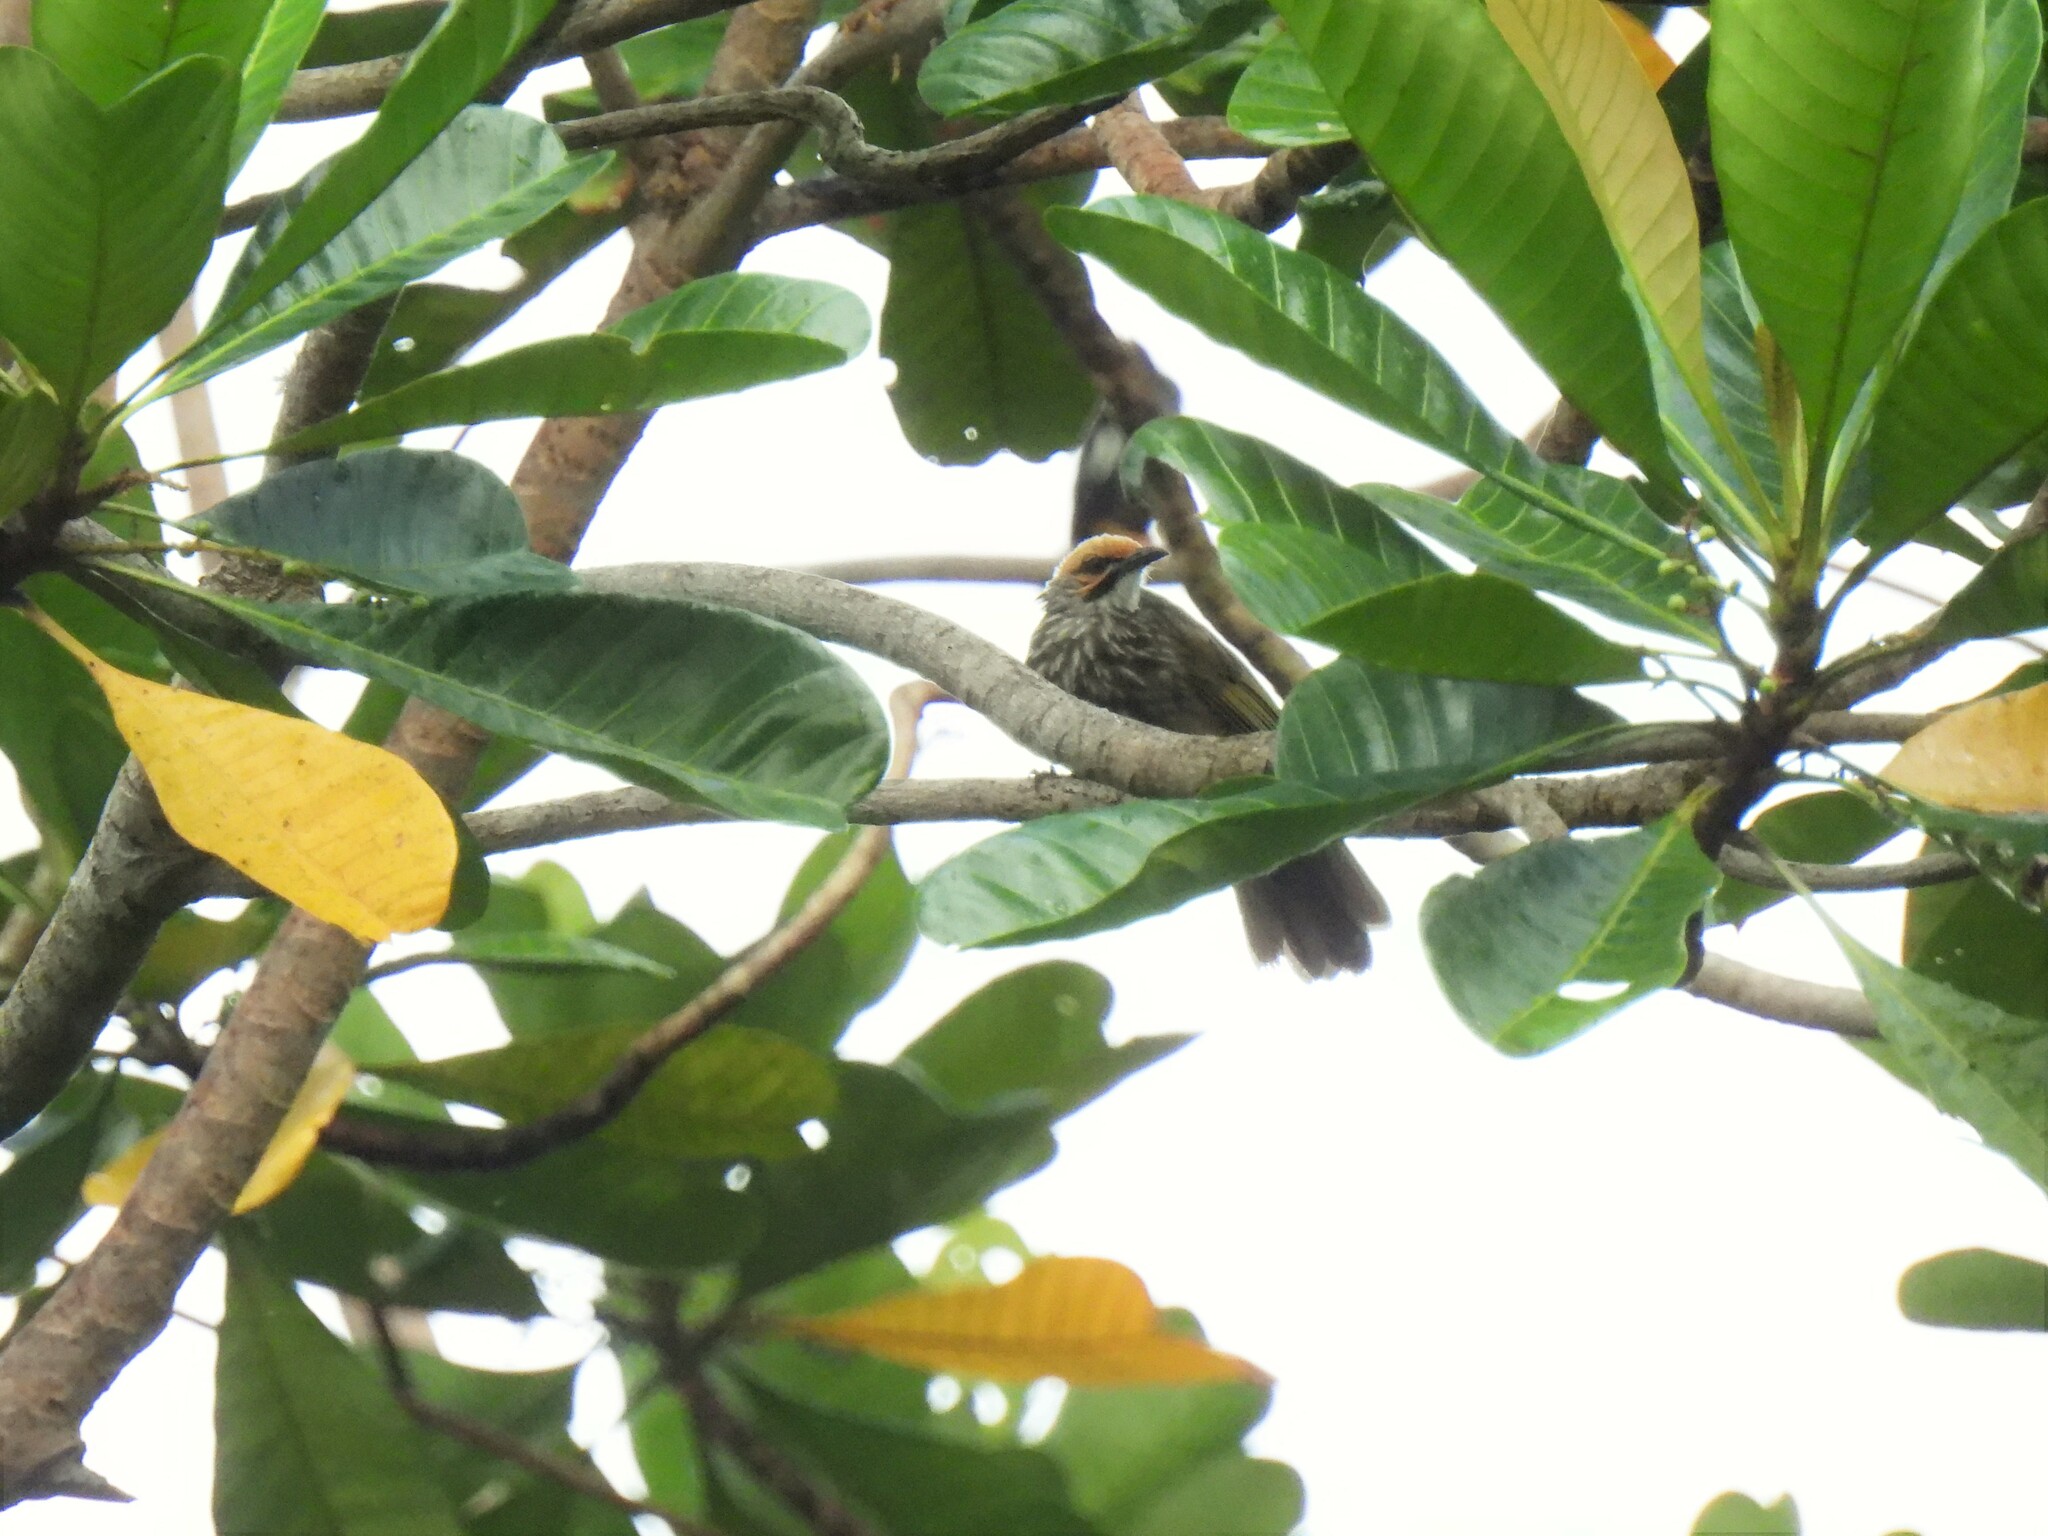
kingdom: Animalia
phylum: Chordata
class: Aves
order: Passeriformes
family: Pycnonotidae
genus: Pycnonotus
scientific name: Pycnonotus zeylanicus
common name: Straw-headed bulbul
